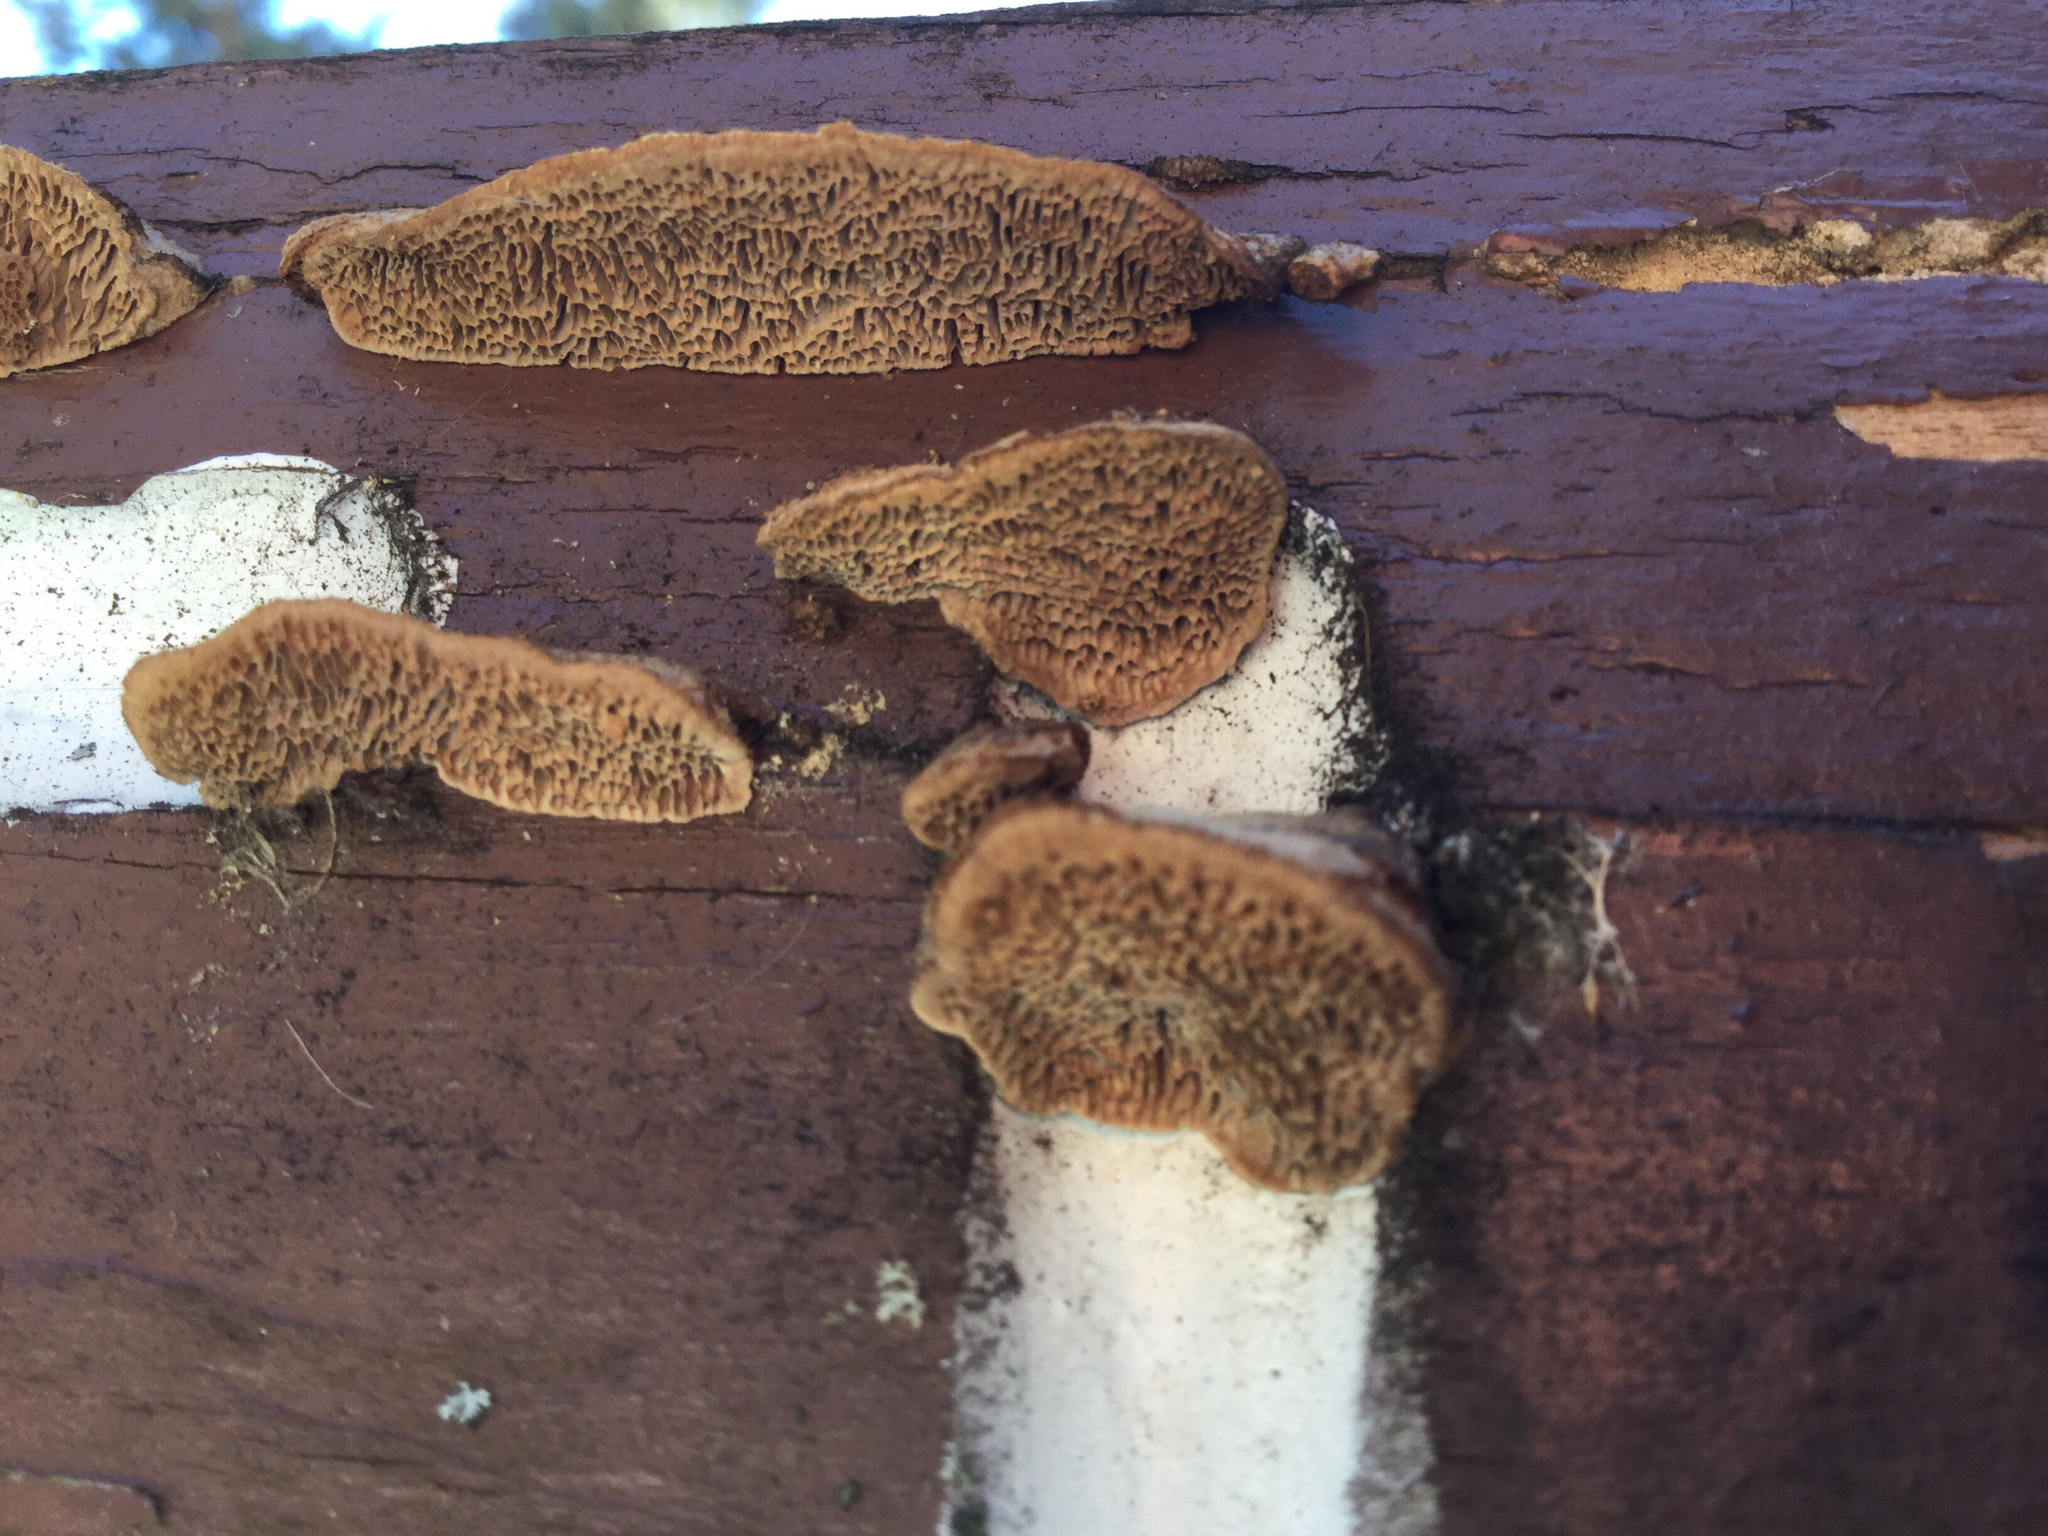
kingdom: Fungi
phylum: Basidiomycota
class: Agaricomycetes
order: Gloeophyllales
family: Gloeophyllaceae
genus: Gloeophyllum
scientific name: Gloeophyllum trabeum
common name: Timber mazegill
